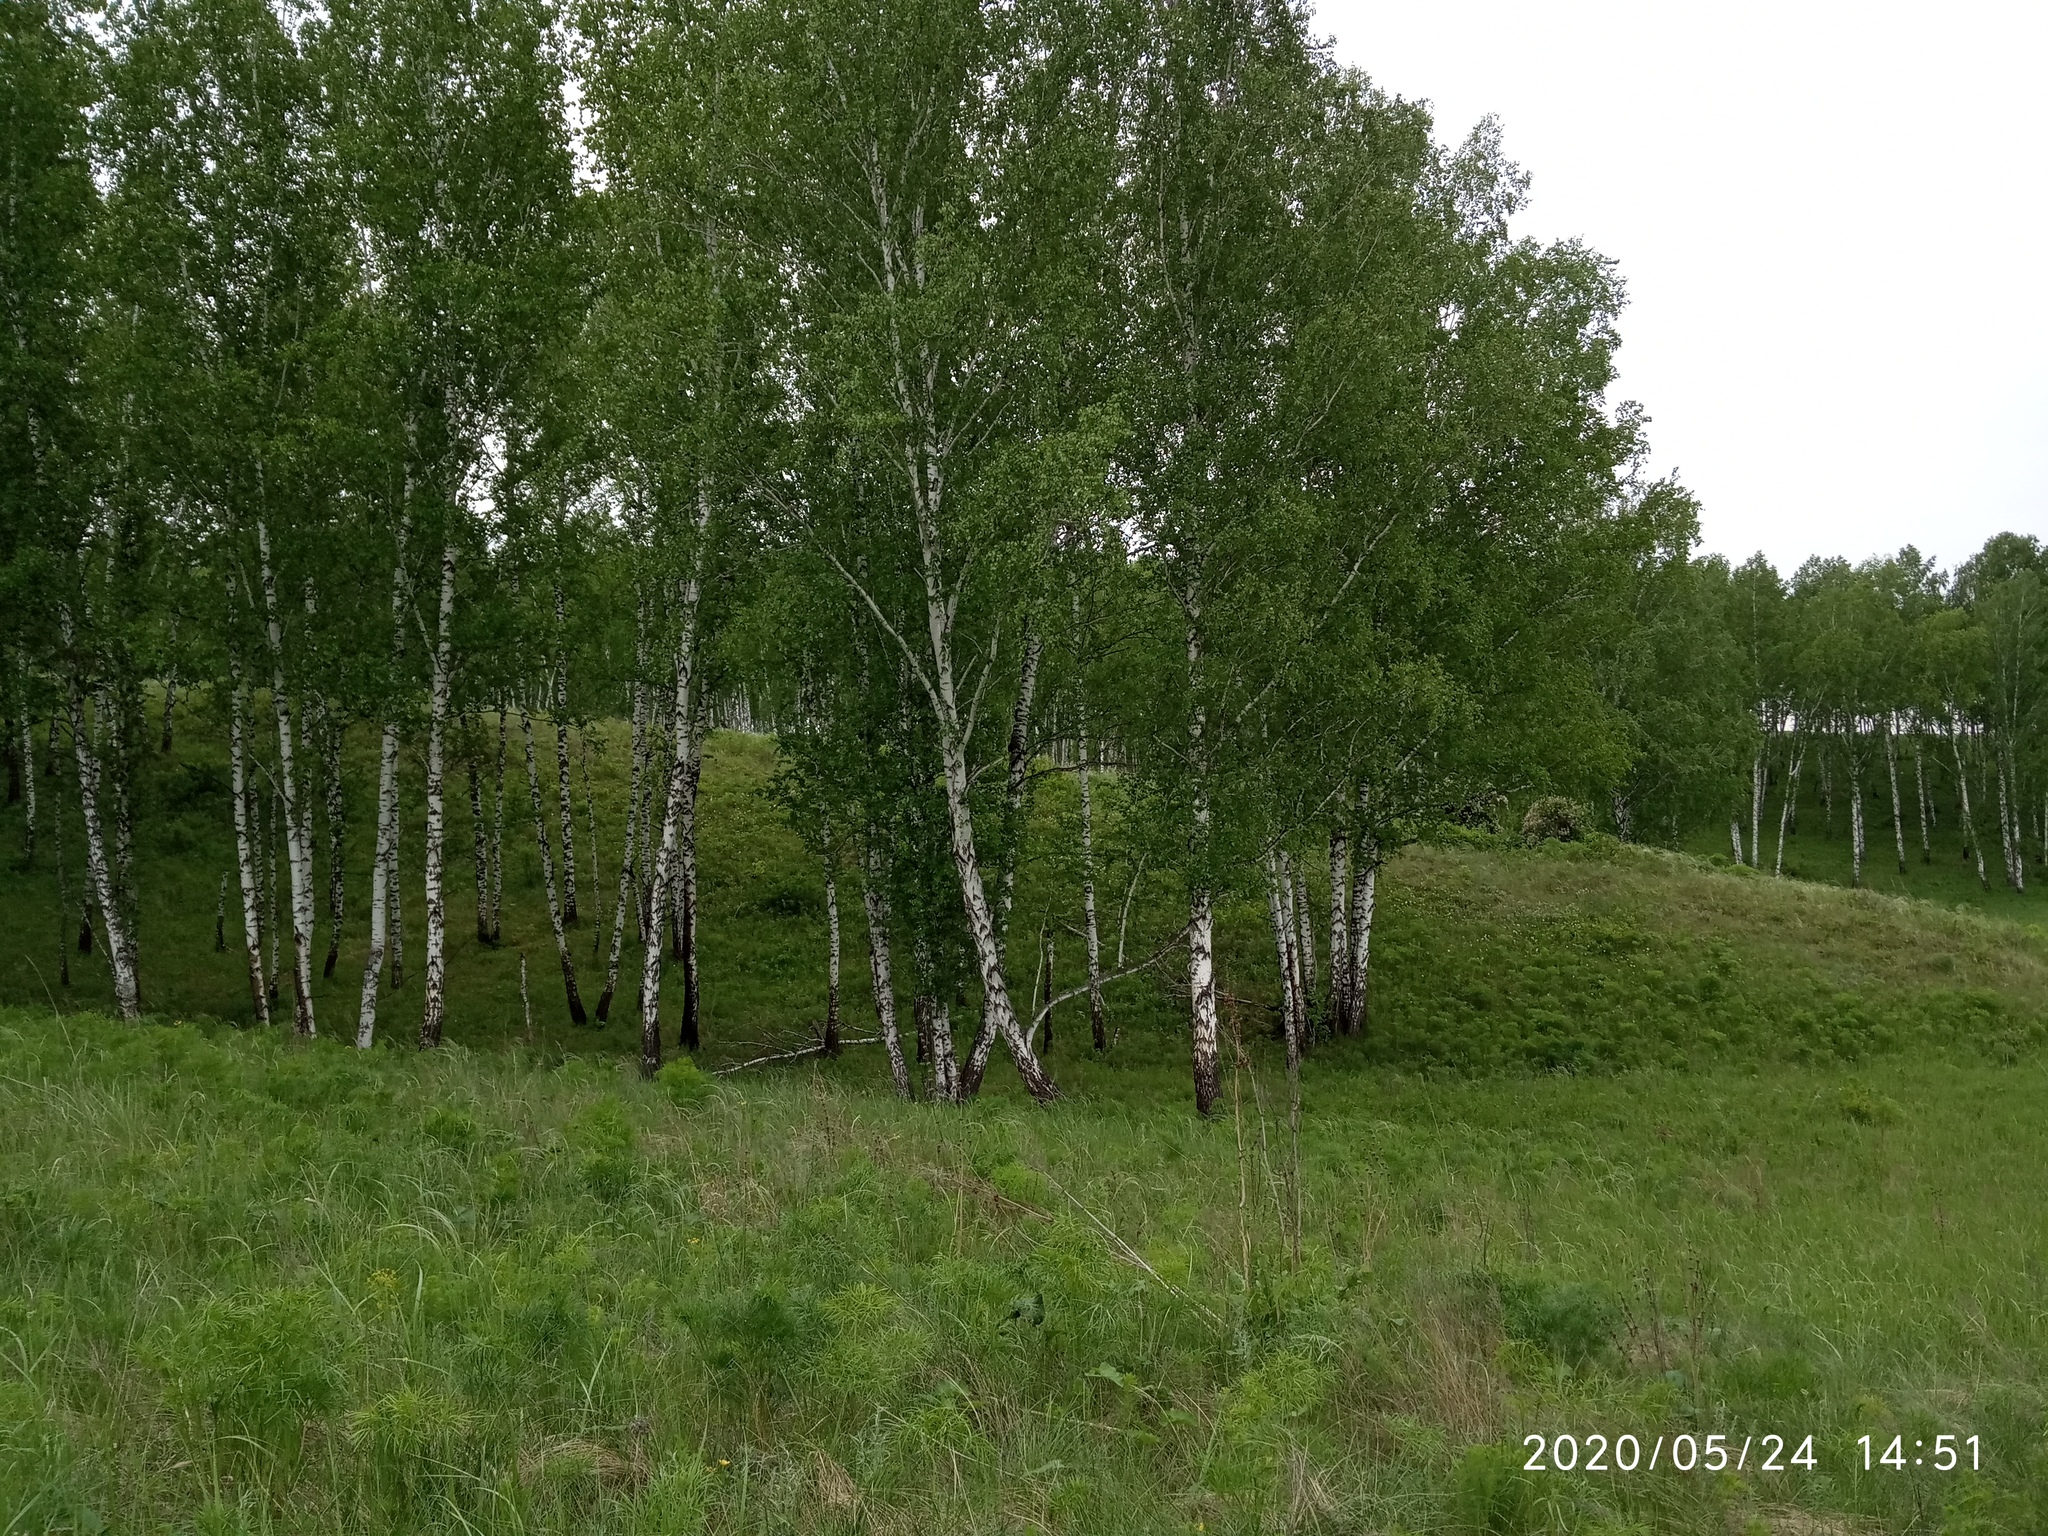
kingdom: Plantae
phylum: Tracheophyta
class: Magnoliopsida
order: Santalales
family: Thesiaceae
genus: Thesium
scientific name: Thesium refractum
